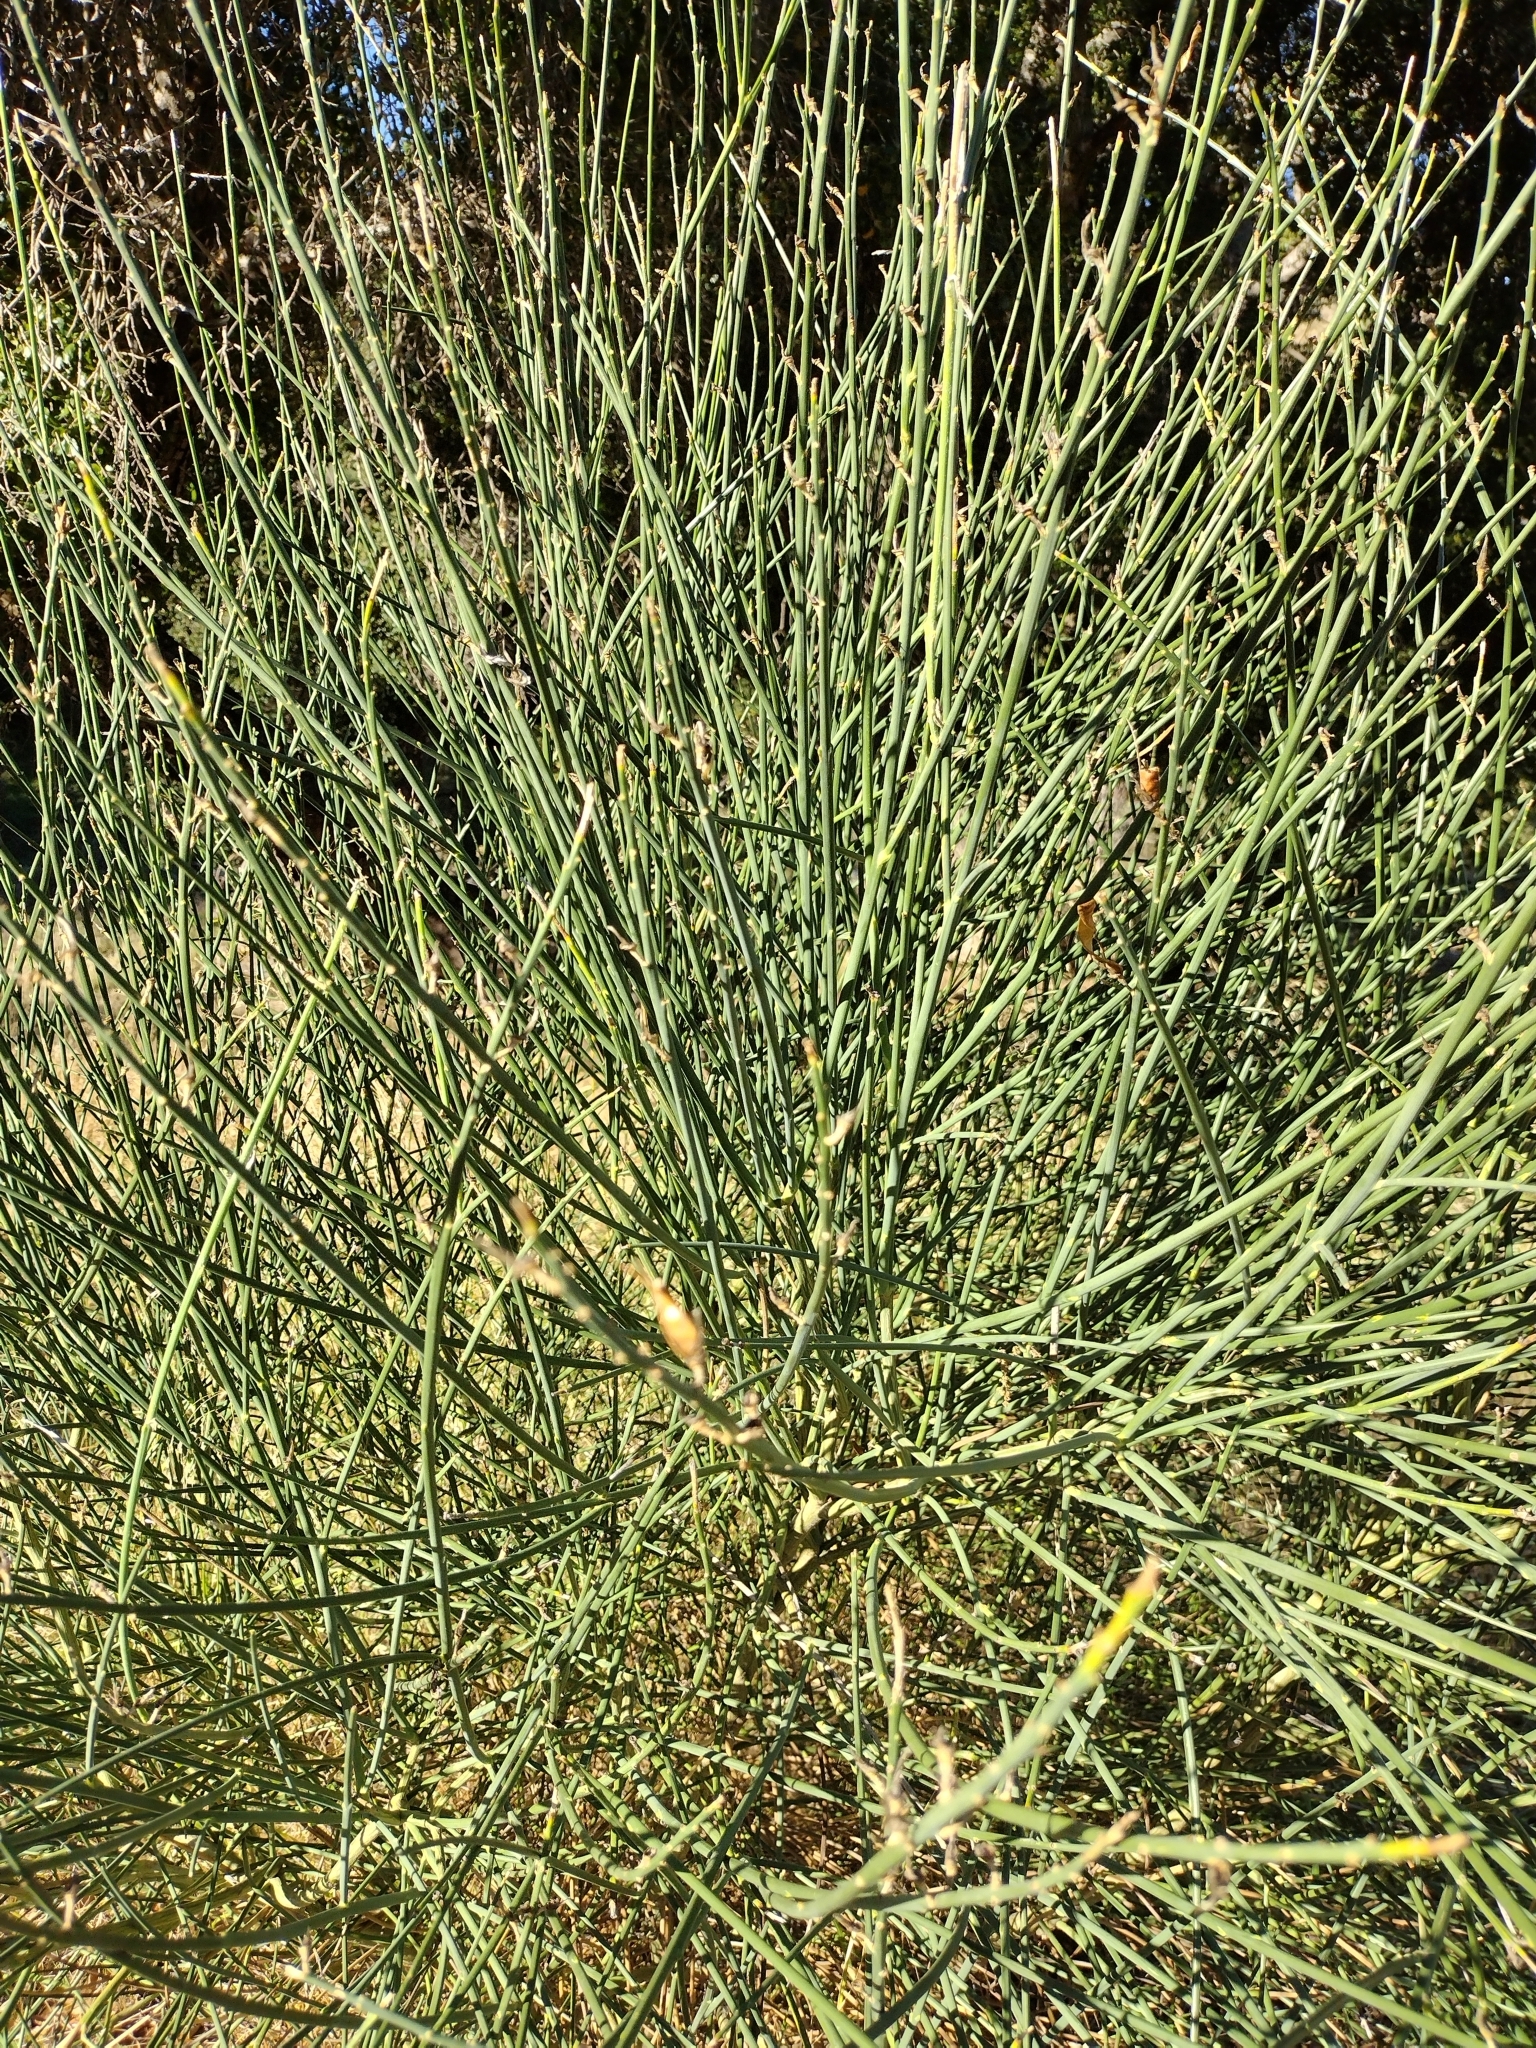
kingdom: Plantae
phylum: Tracheophyta
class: Magnoliopsida
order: Fabales
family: Fabaceae
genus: Spartium
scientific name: Spartium junceum
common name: Spanish broom
